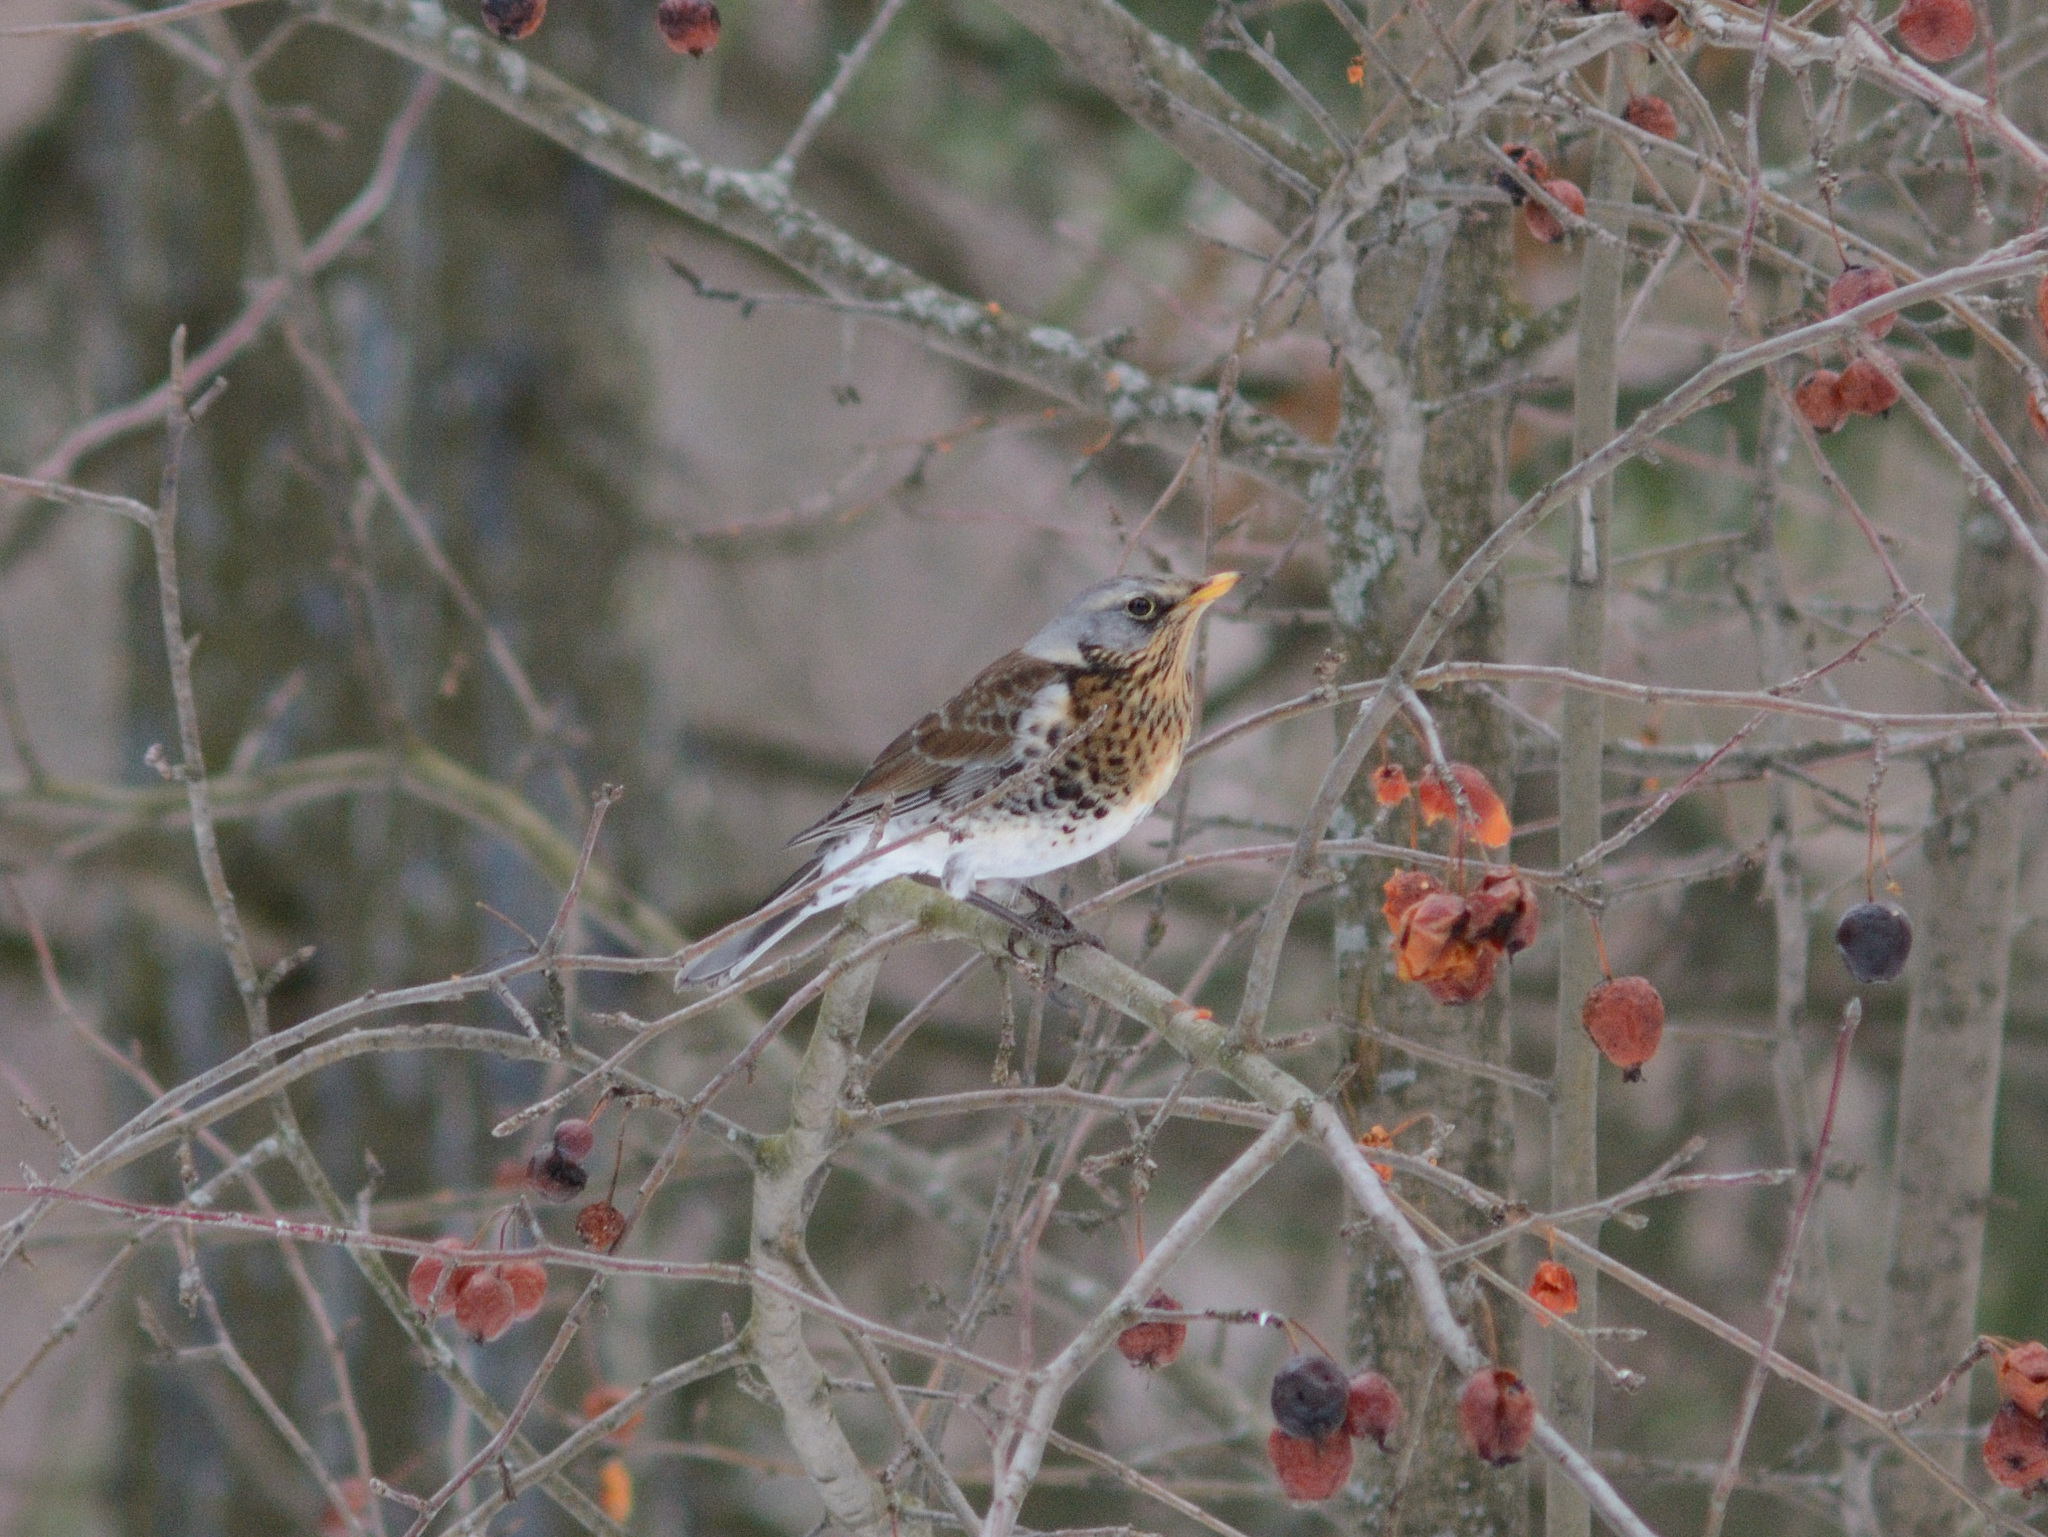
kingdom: Animalia
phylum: Chordata
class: Aves
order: Passeriformes
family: Turdidae
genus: Turdus
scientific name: Turdus pilaris
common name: Fieldfare
